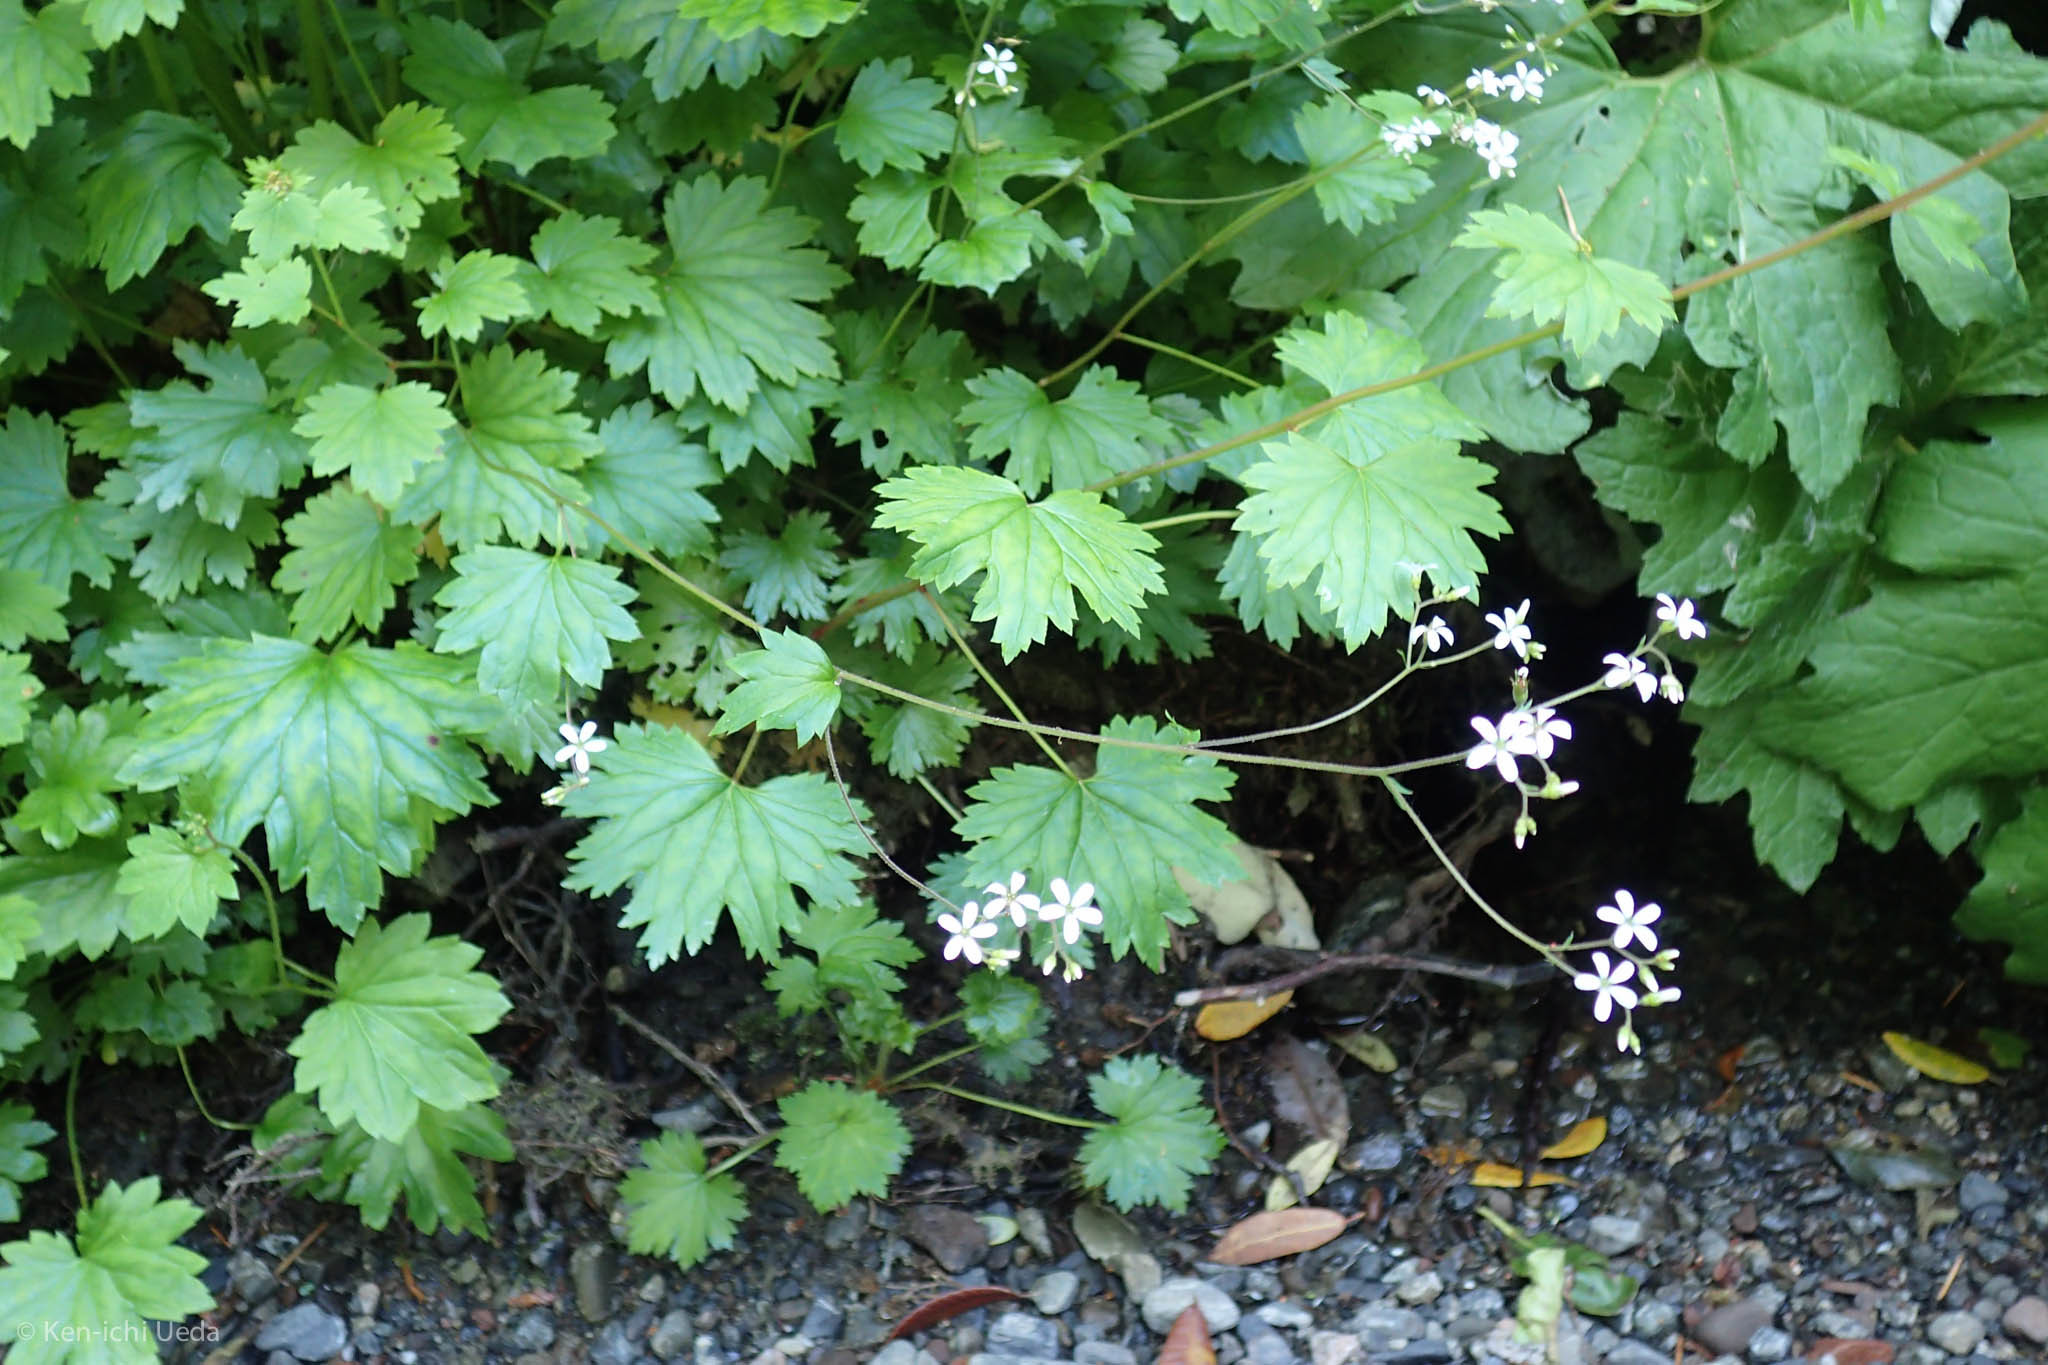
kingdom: Plantae
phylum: Tracheophyta
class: Magnoliopsida
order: Saxifragales
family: Saxifragaceae
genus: Boykinia
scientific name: Boykinia occidentalis
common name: Coast boykinia
